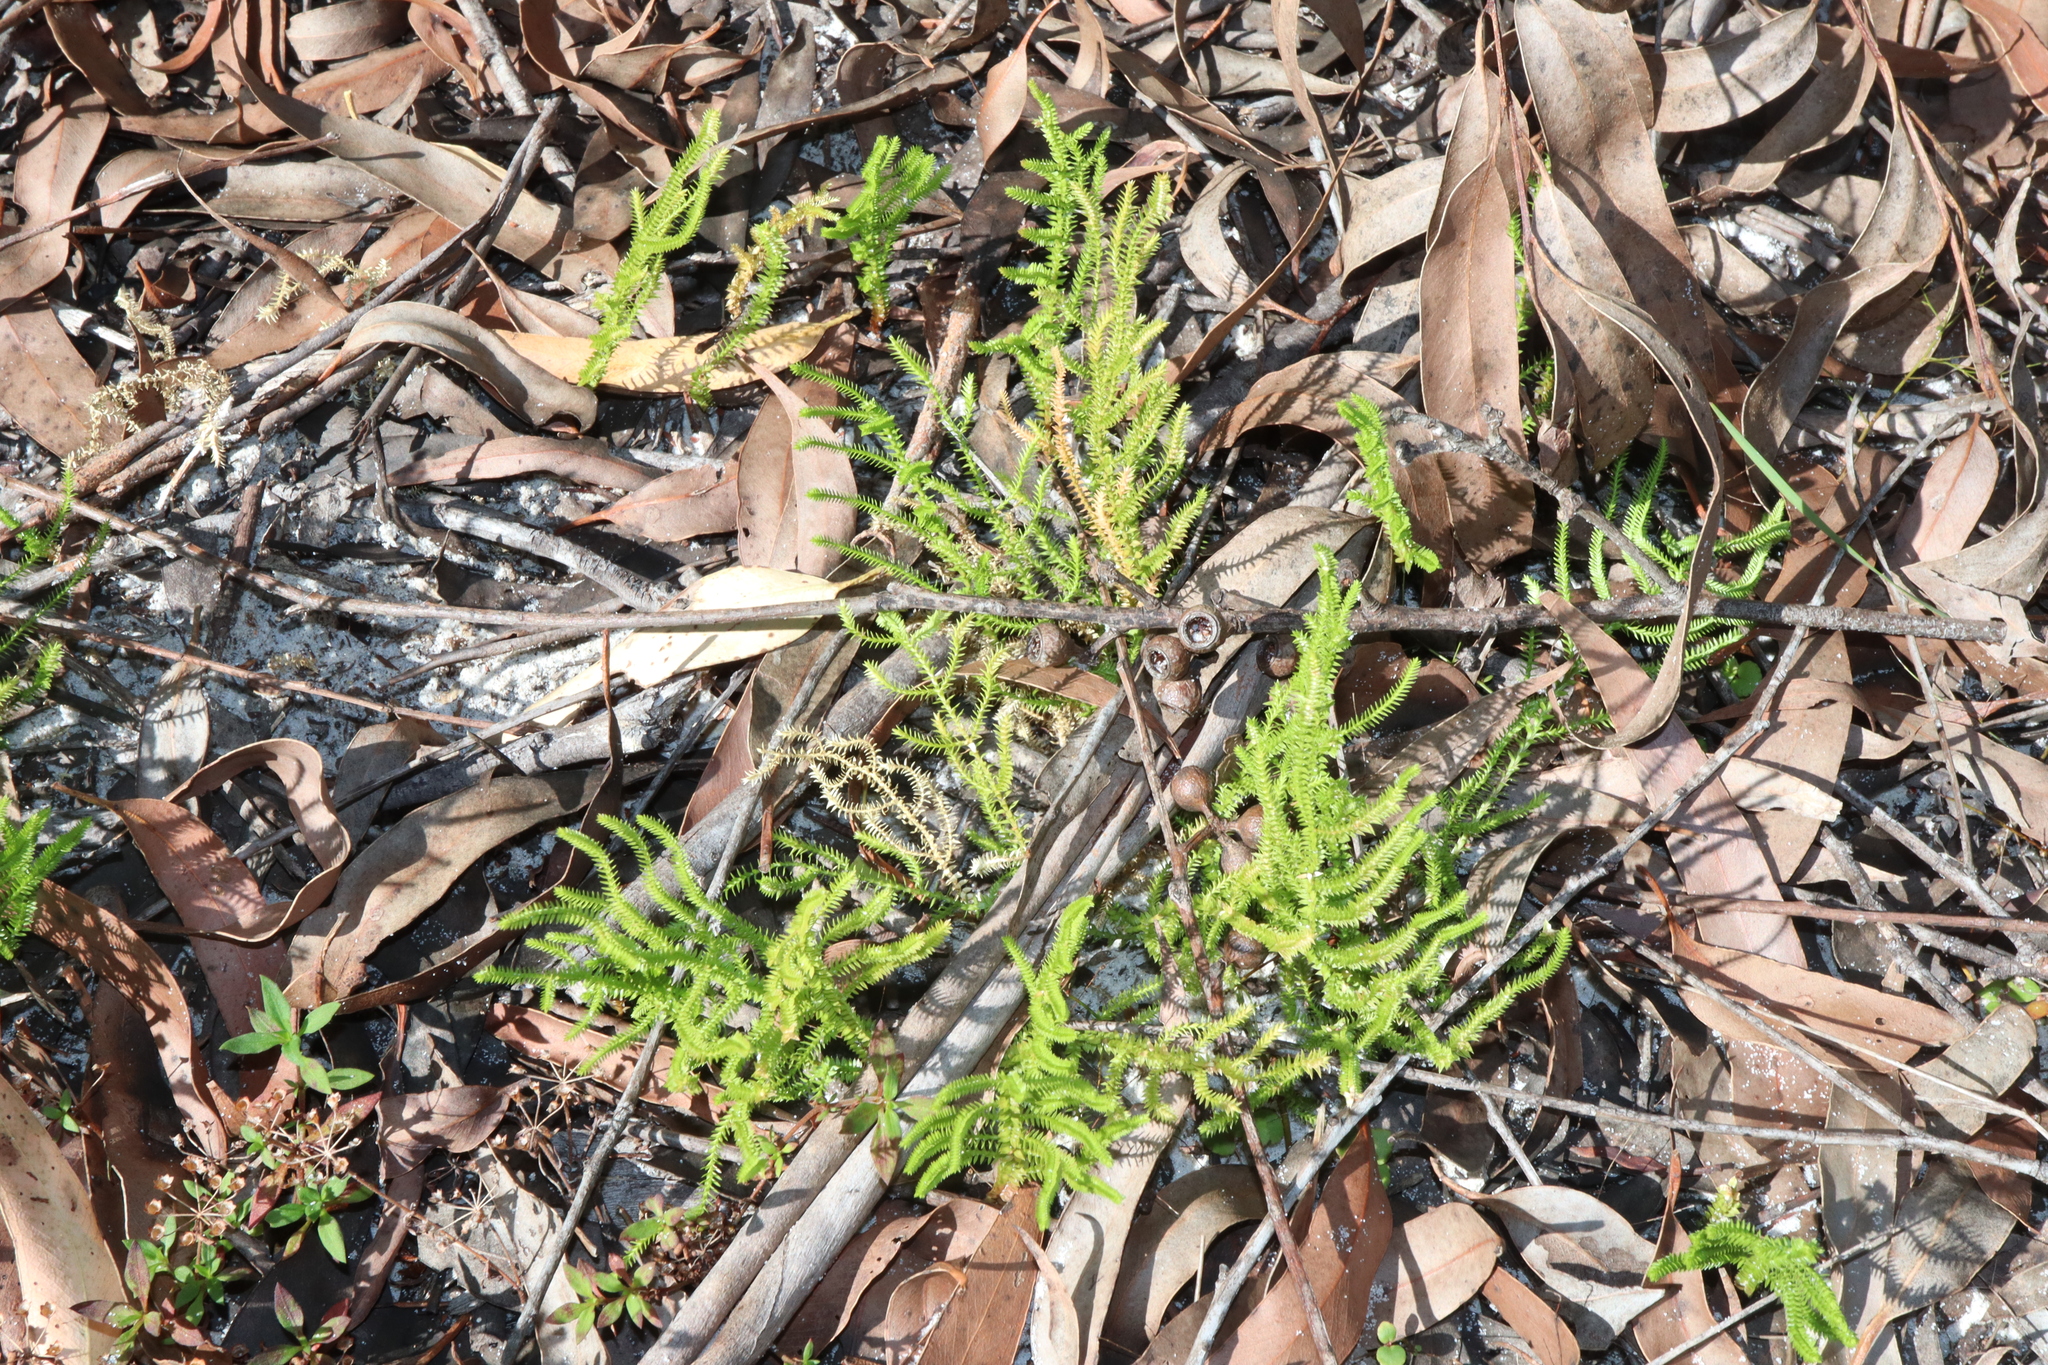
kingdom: Plantae
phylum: Tracheophyta
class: Lycopodiopsida
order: Selaginellales
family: Selaginellaceae
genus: Selaginella
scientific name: Selaginella uliginosa
